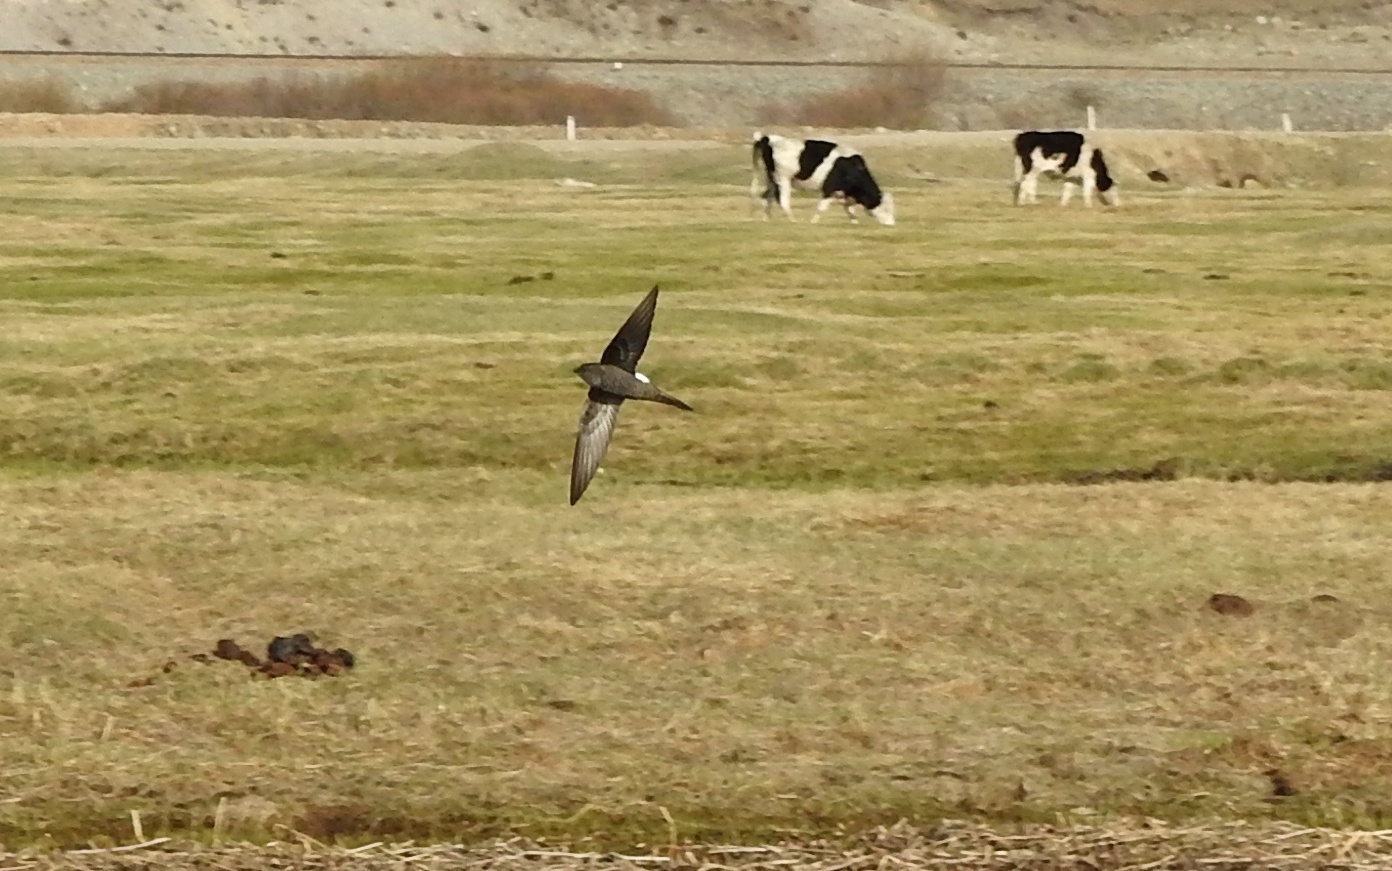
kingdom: Animalia
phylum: Chordata
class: Aves
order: Apodiformes
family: Apodidae
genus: Apus
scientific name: Apus pacificus
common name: Pacific swift
